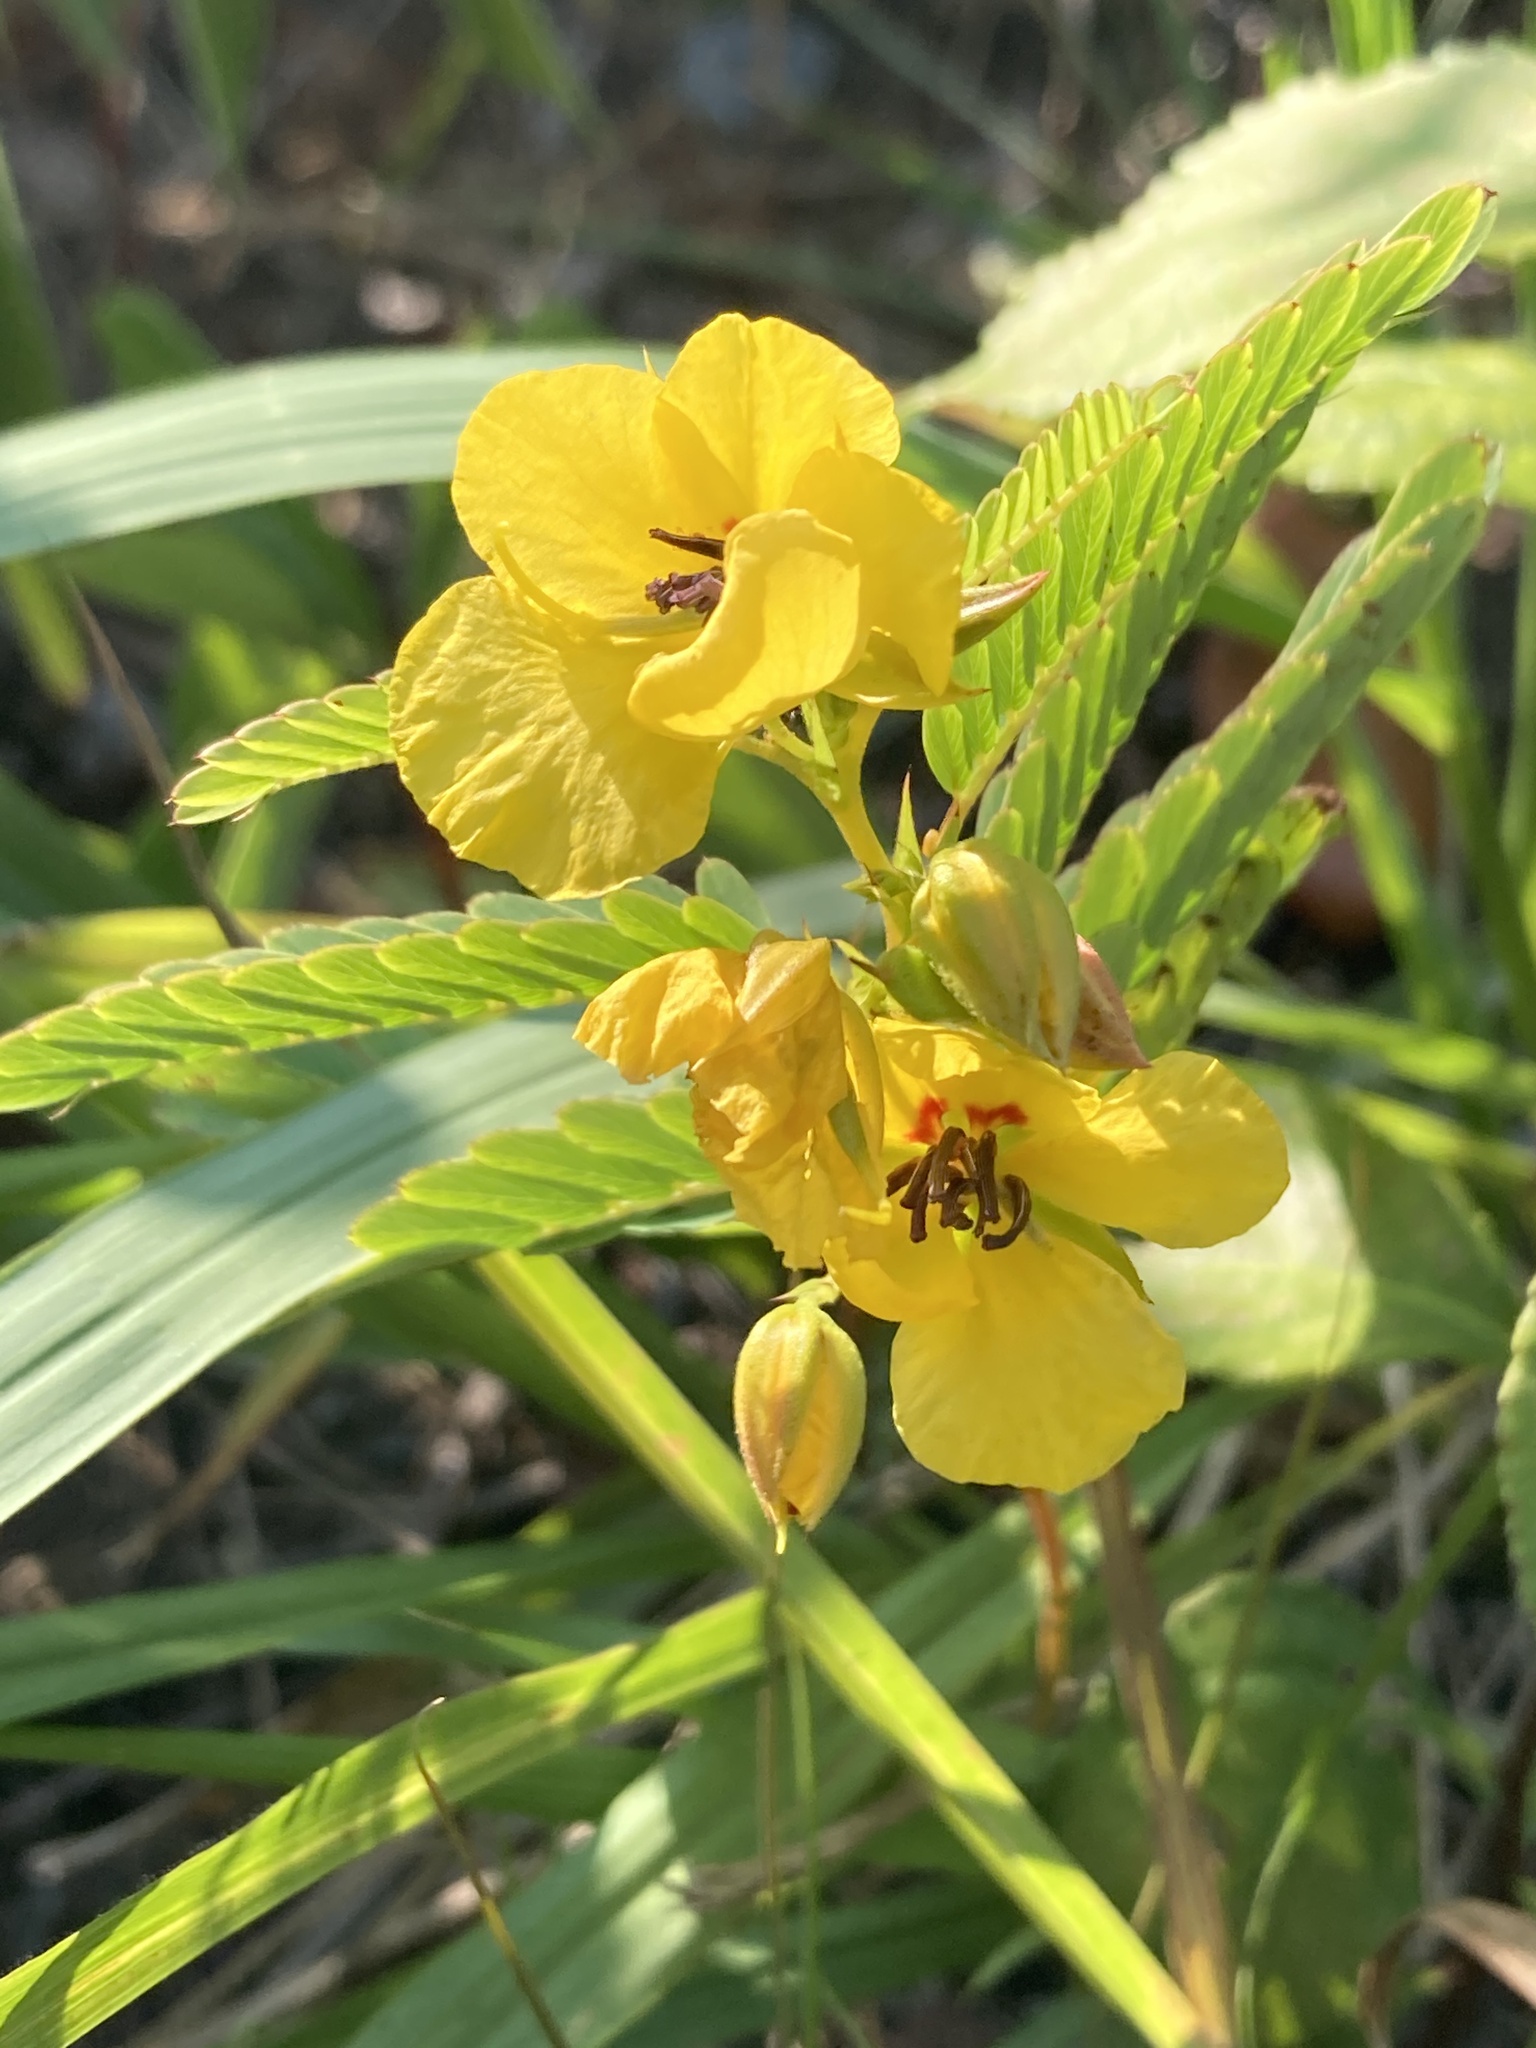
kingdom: Plantae
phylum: Tracheophyta
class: Magnoliopsida
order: Fabales
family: Fabaceae
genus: Chamaecrista
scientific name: Chamaecrista fasciculata
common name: Golden cassia
